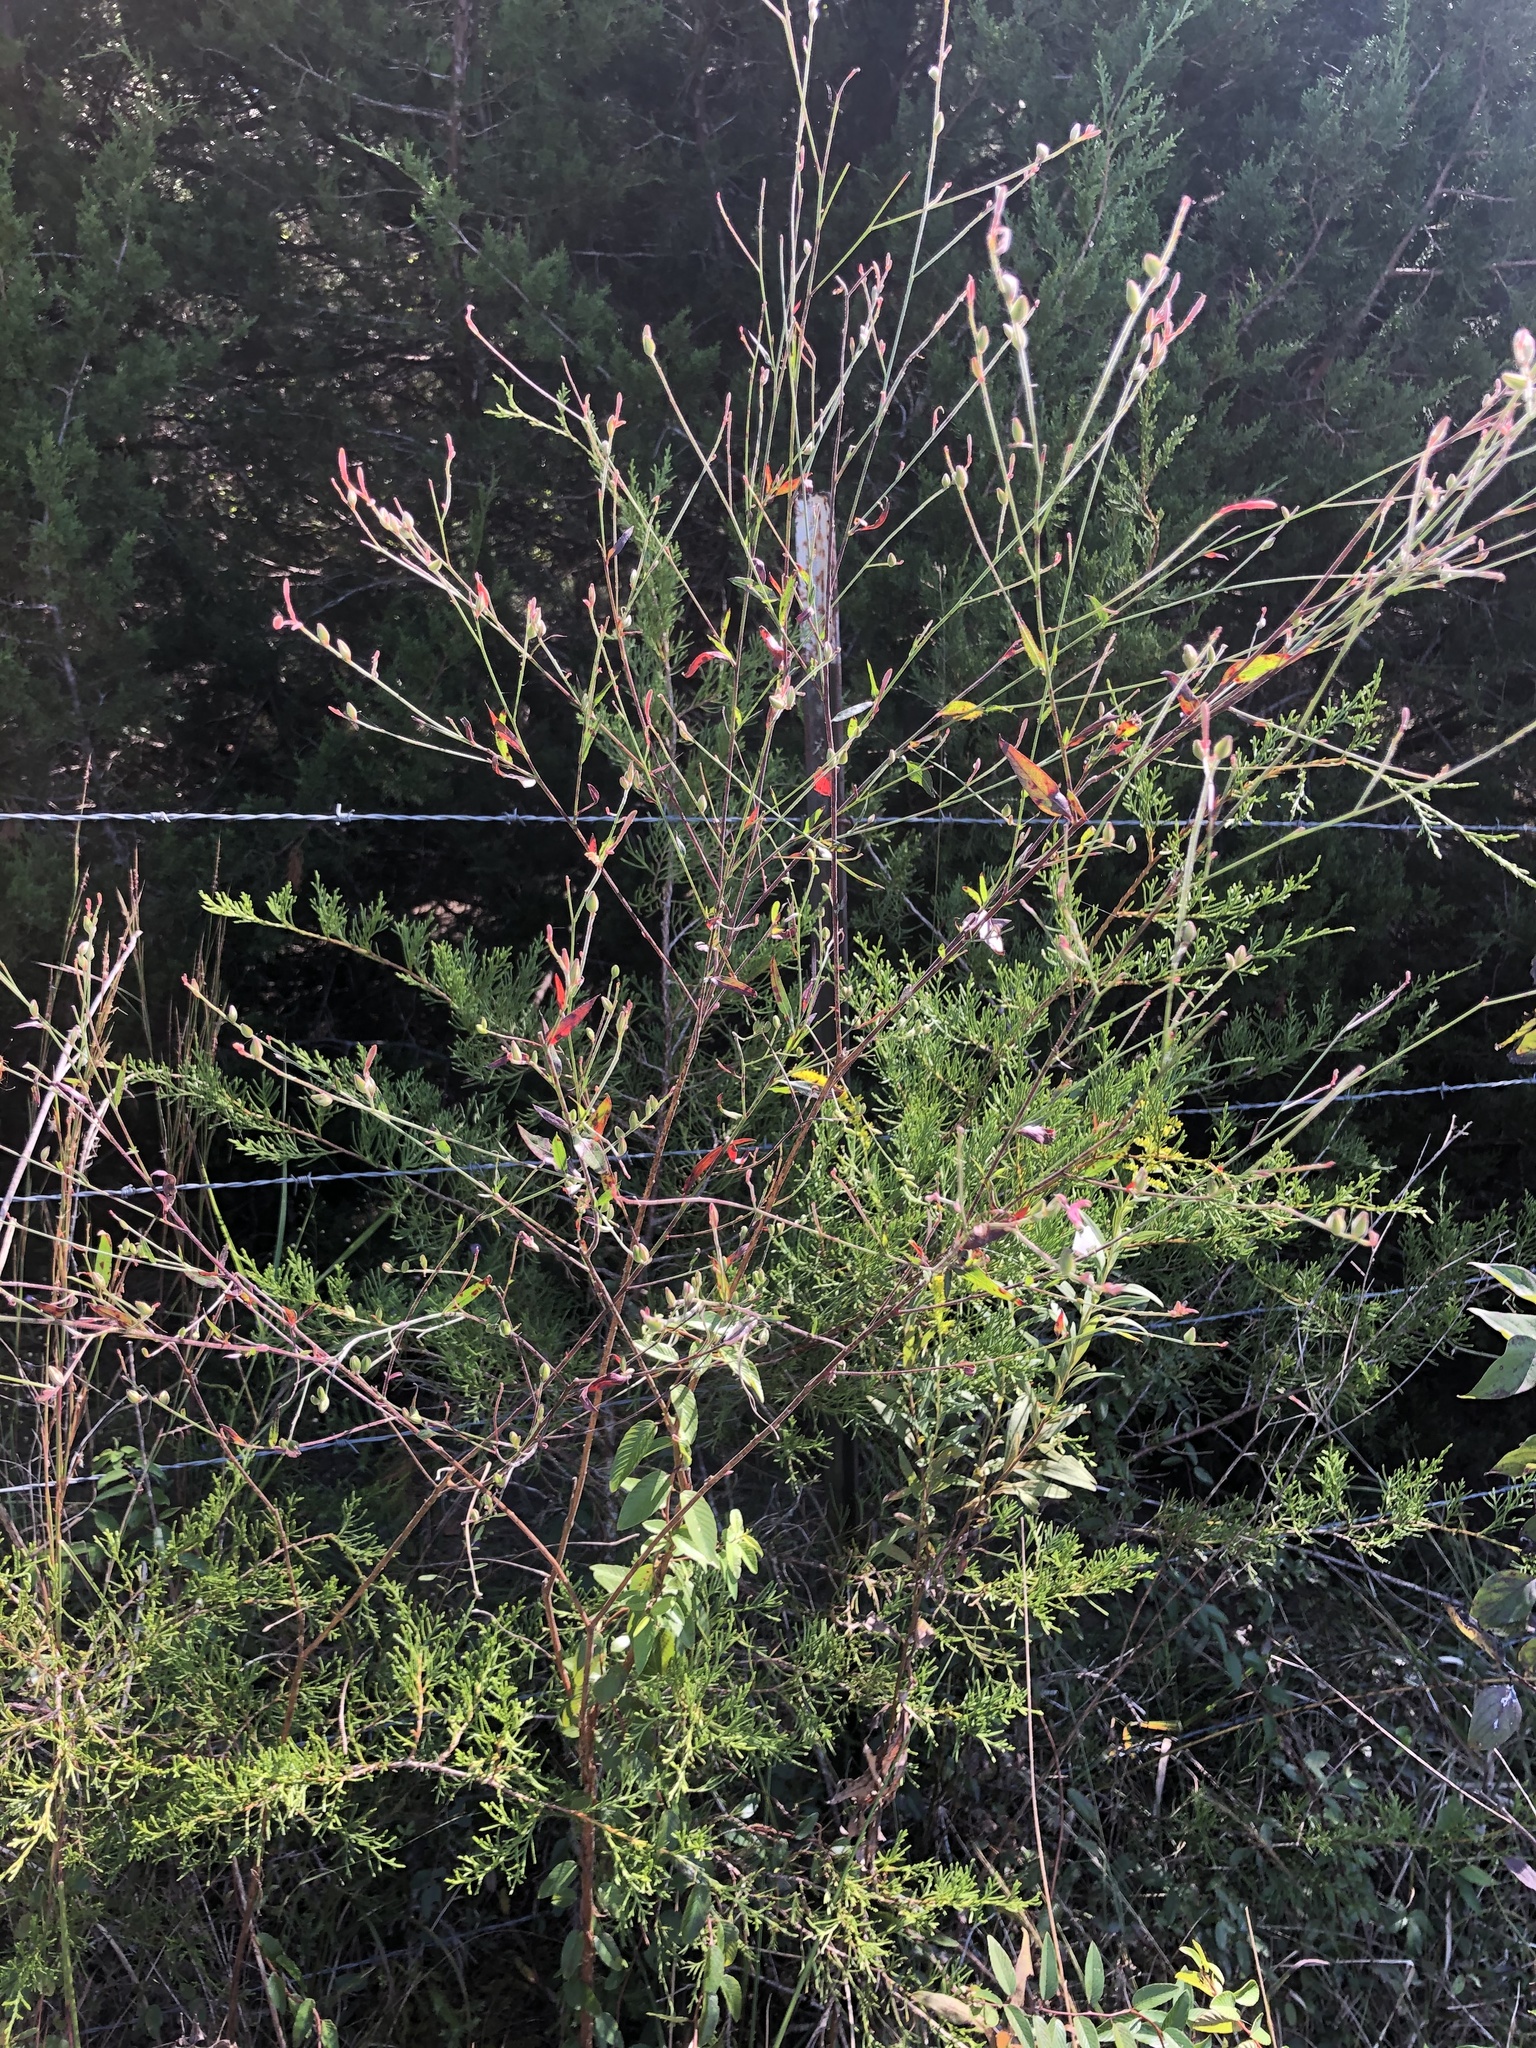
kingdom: Plantae
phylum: Tracheophyta
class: Magnoliopsida
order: Myrtales
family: Onagraceae
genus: Oenothera
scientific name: Oenothera filiformis
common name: Longflower beeblossom
